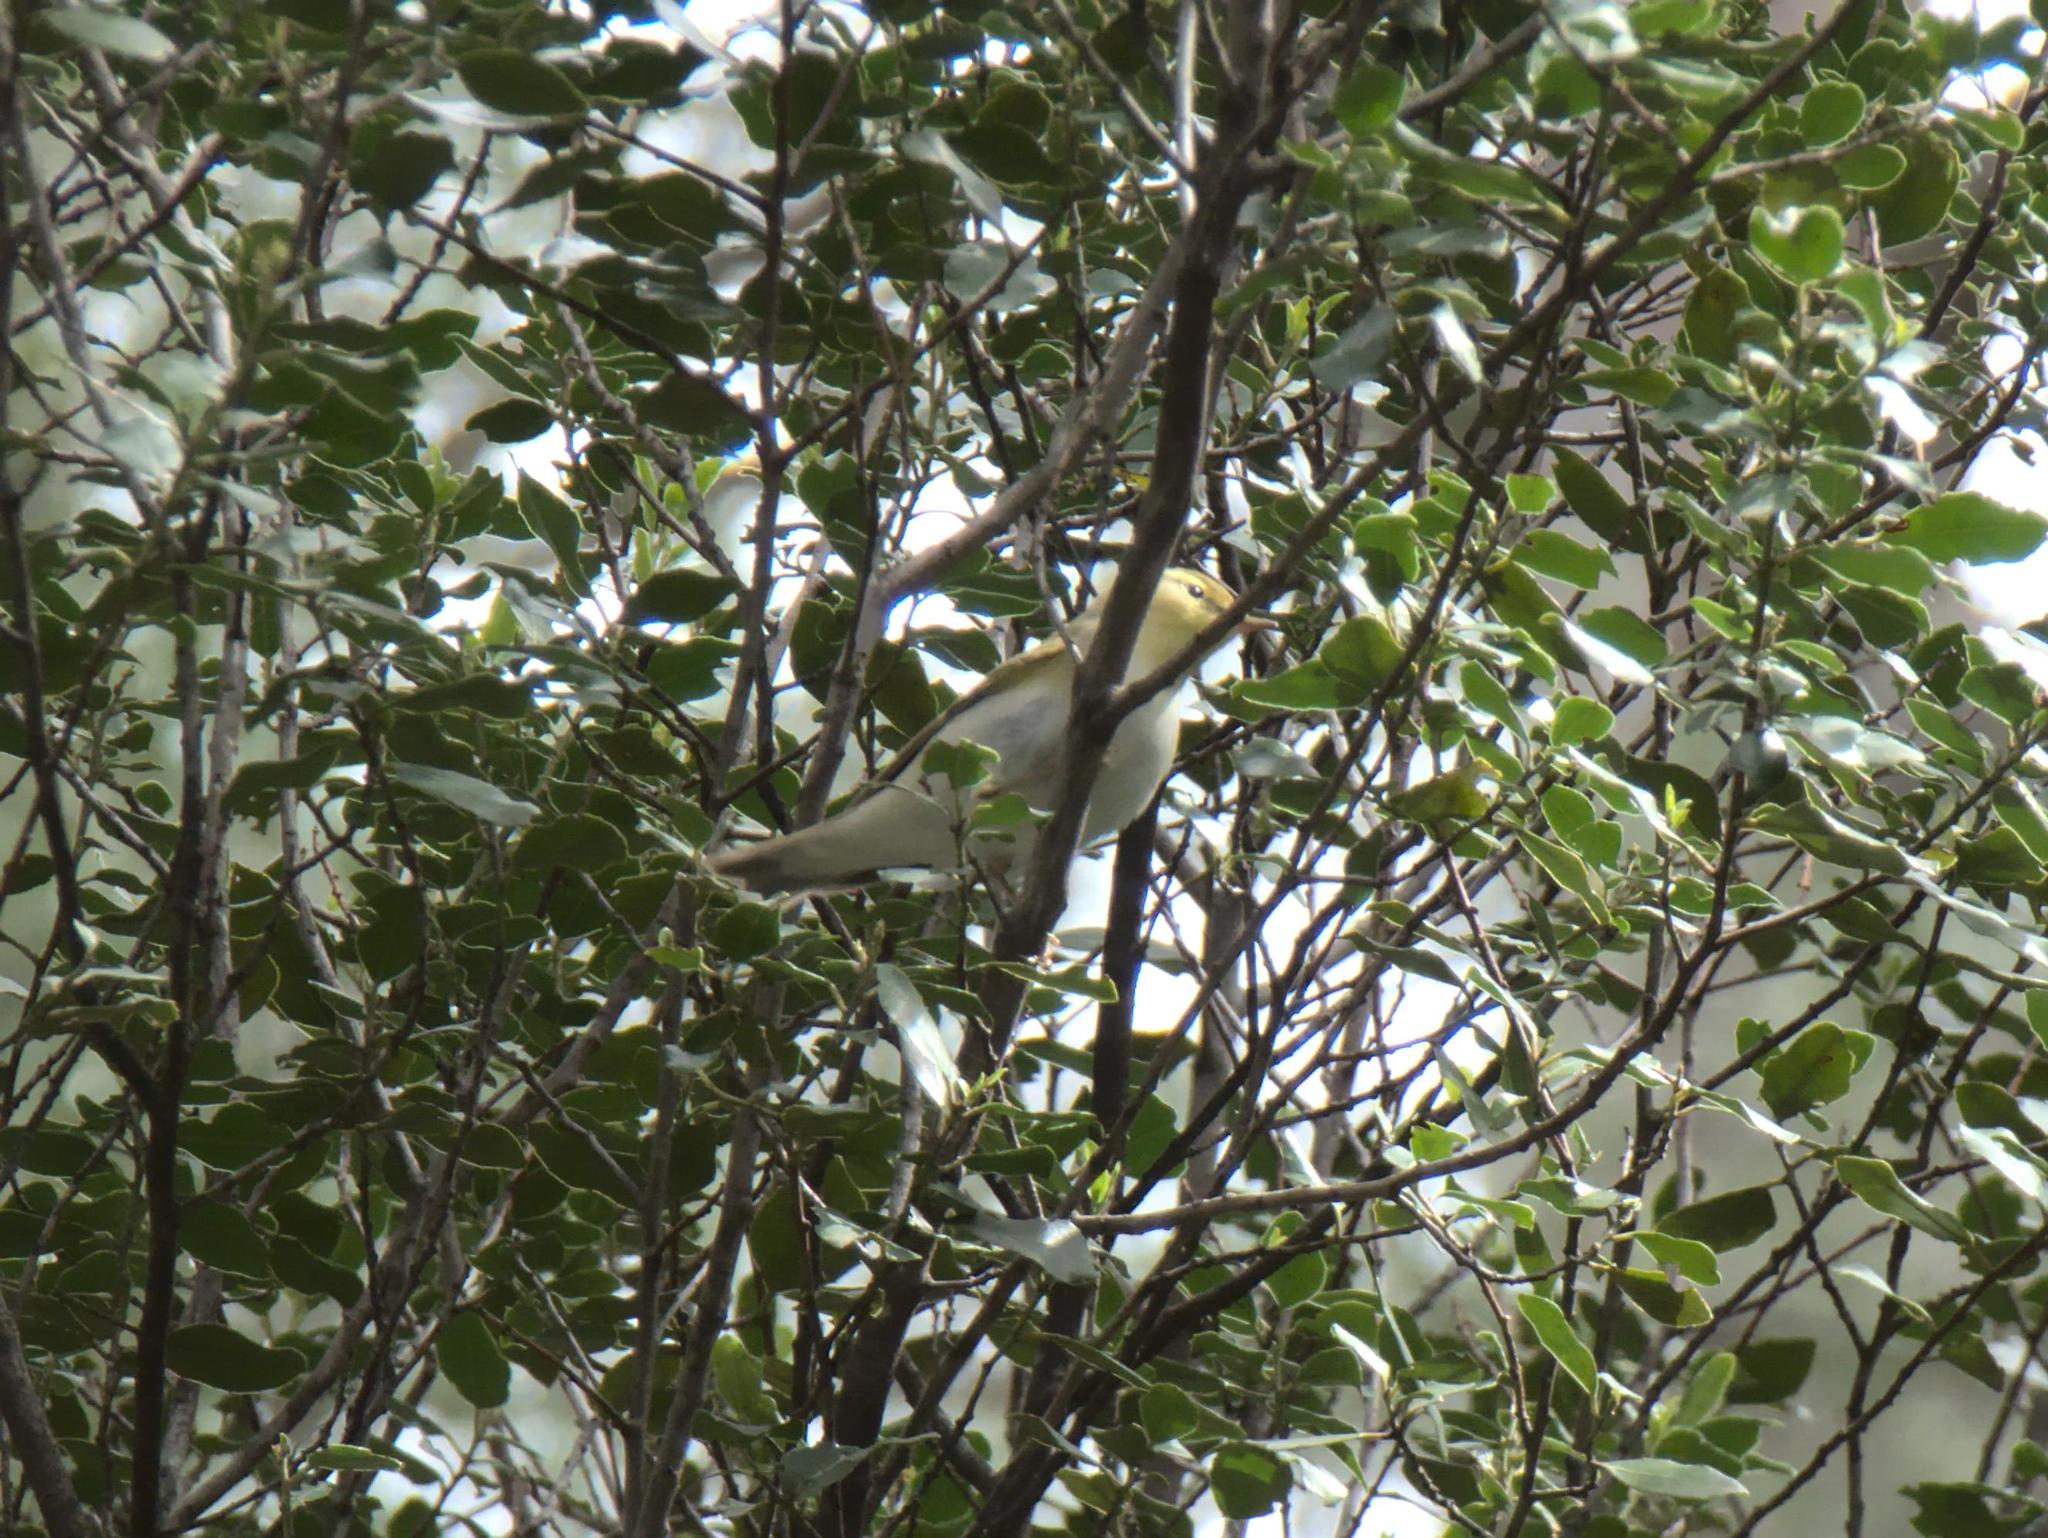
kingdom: Animalia
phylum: Chordata
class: Aves
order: Passeriformes
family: Phylloscopidae
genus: Phylloscopus
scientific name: Phylloscopus sibillatrix
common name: Wood warbler
